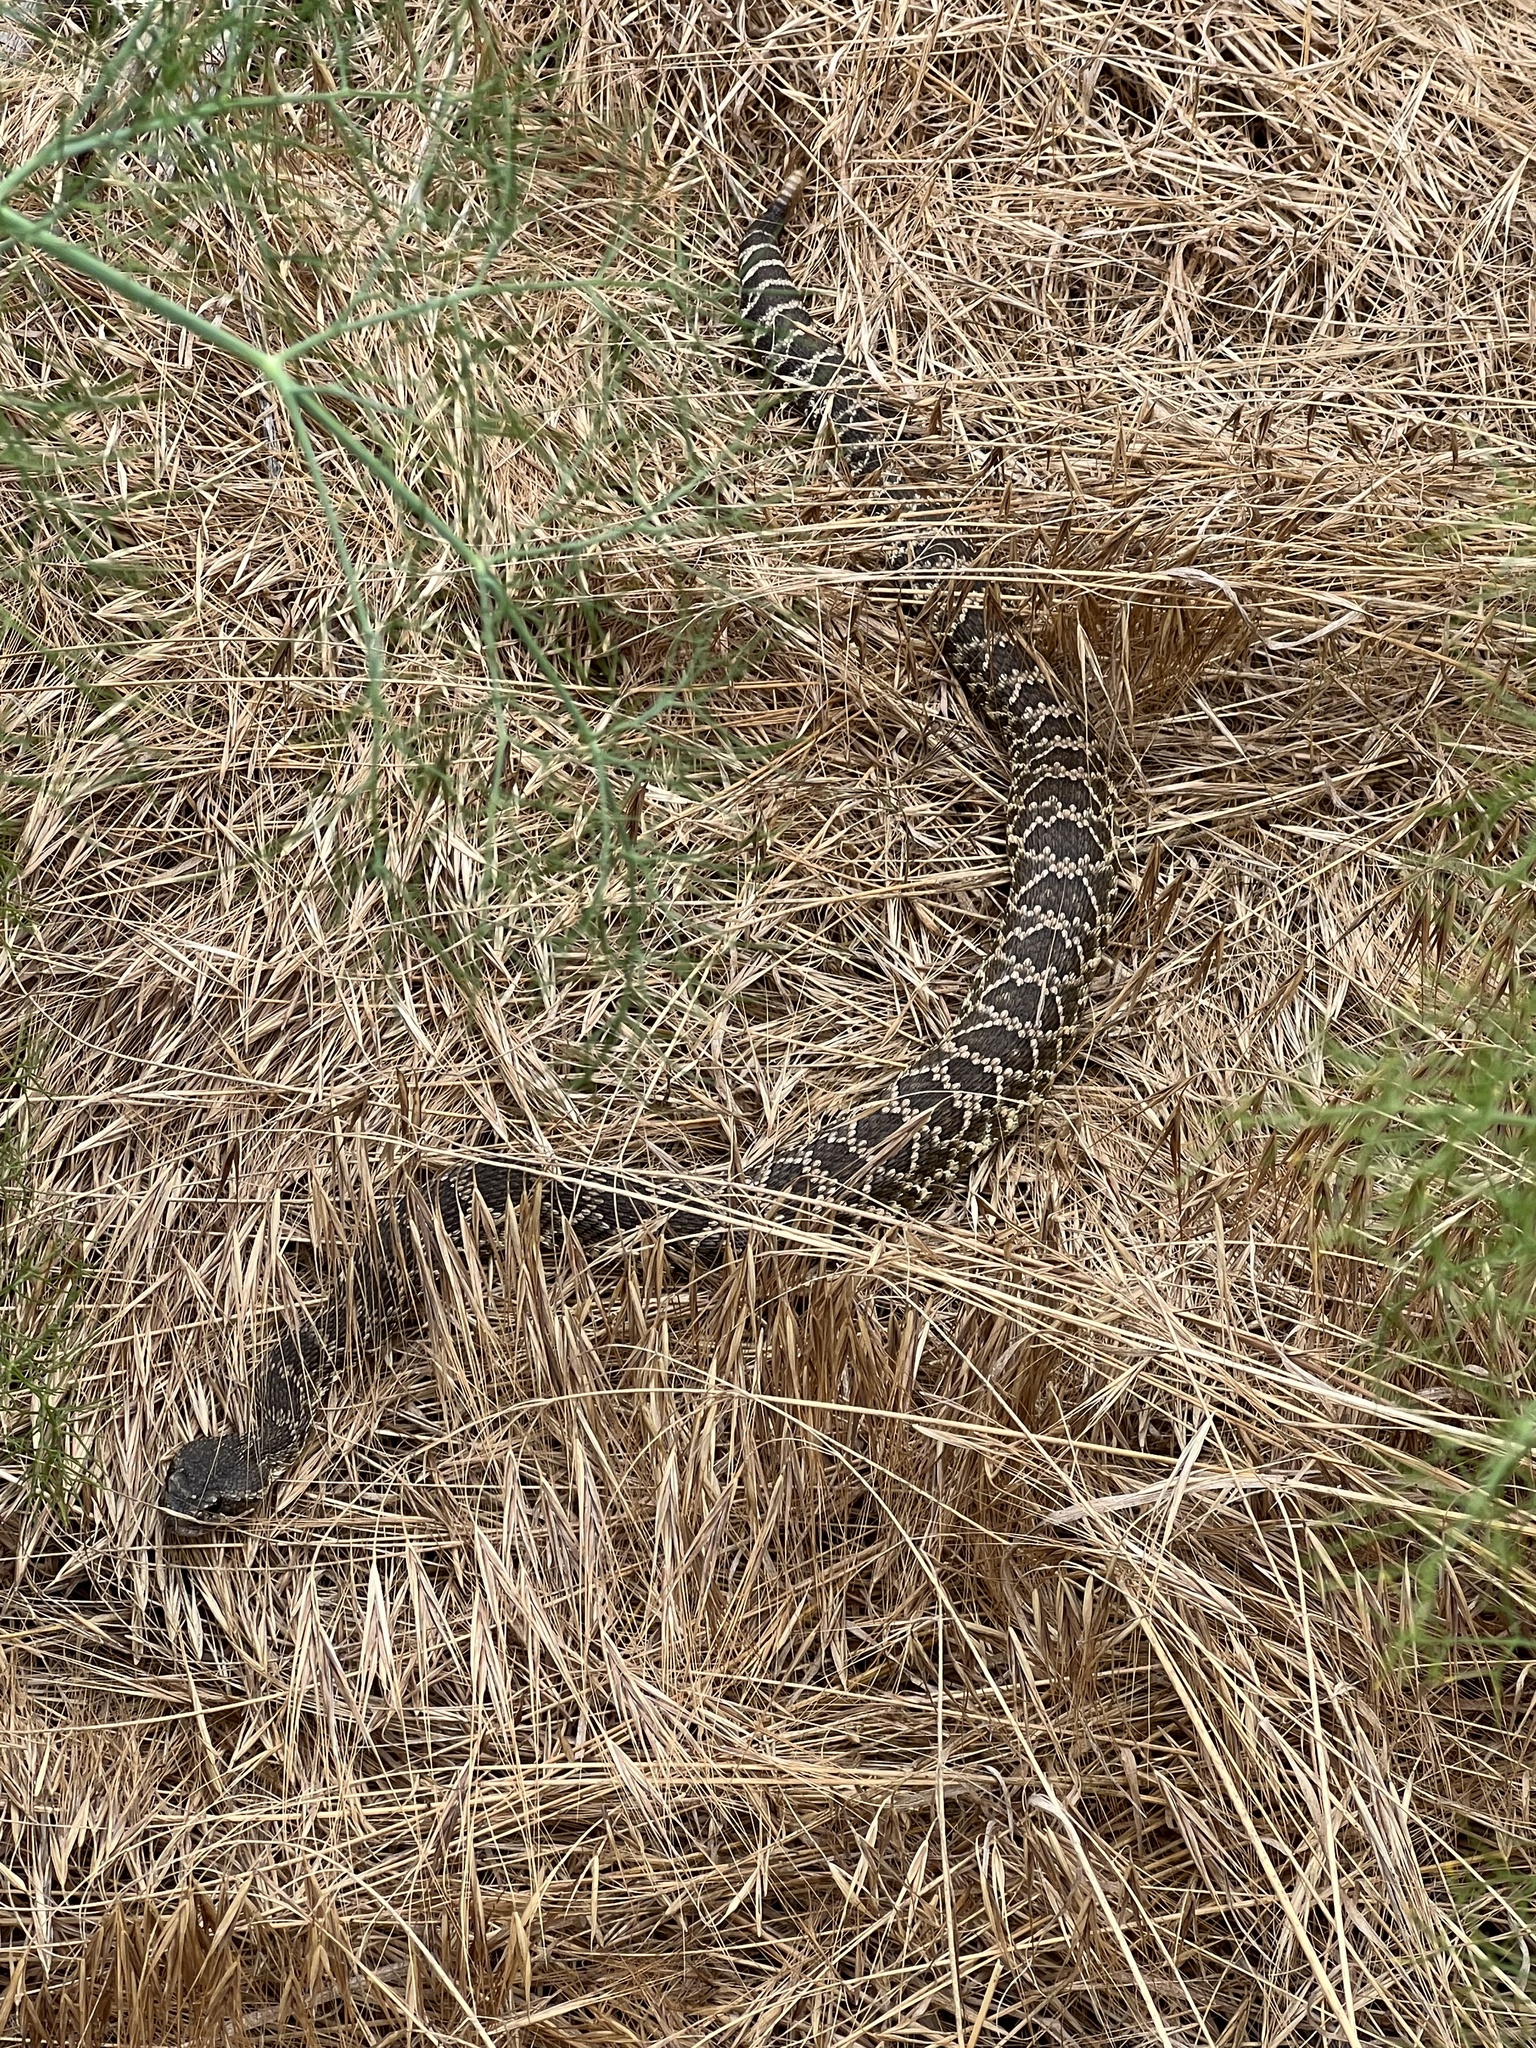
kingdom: Animalia
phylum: Chordata
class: Squamata
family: Viperidae
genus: Crotalus
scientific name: Crotalus oreganus
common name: Abyssus
